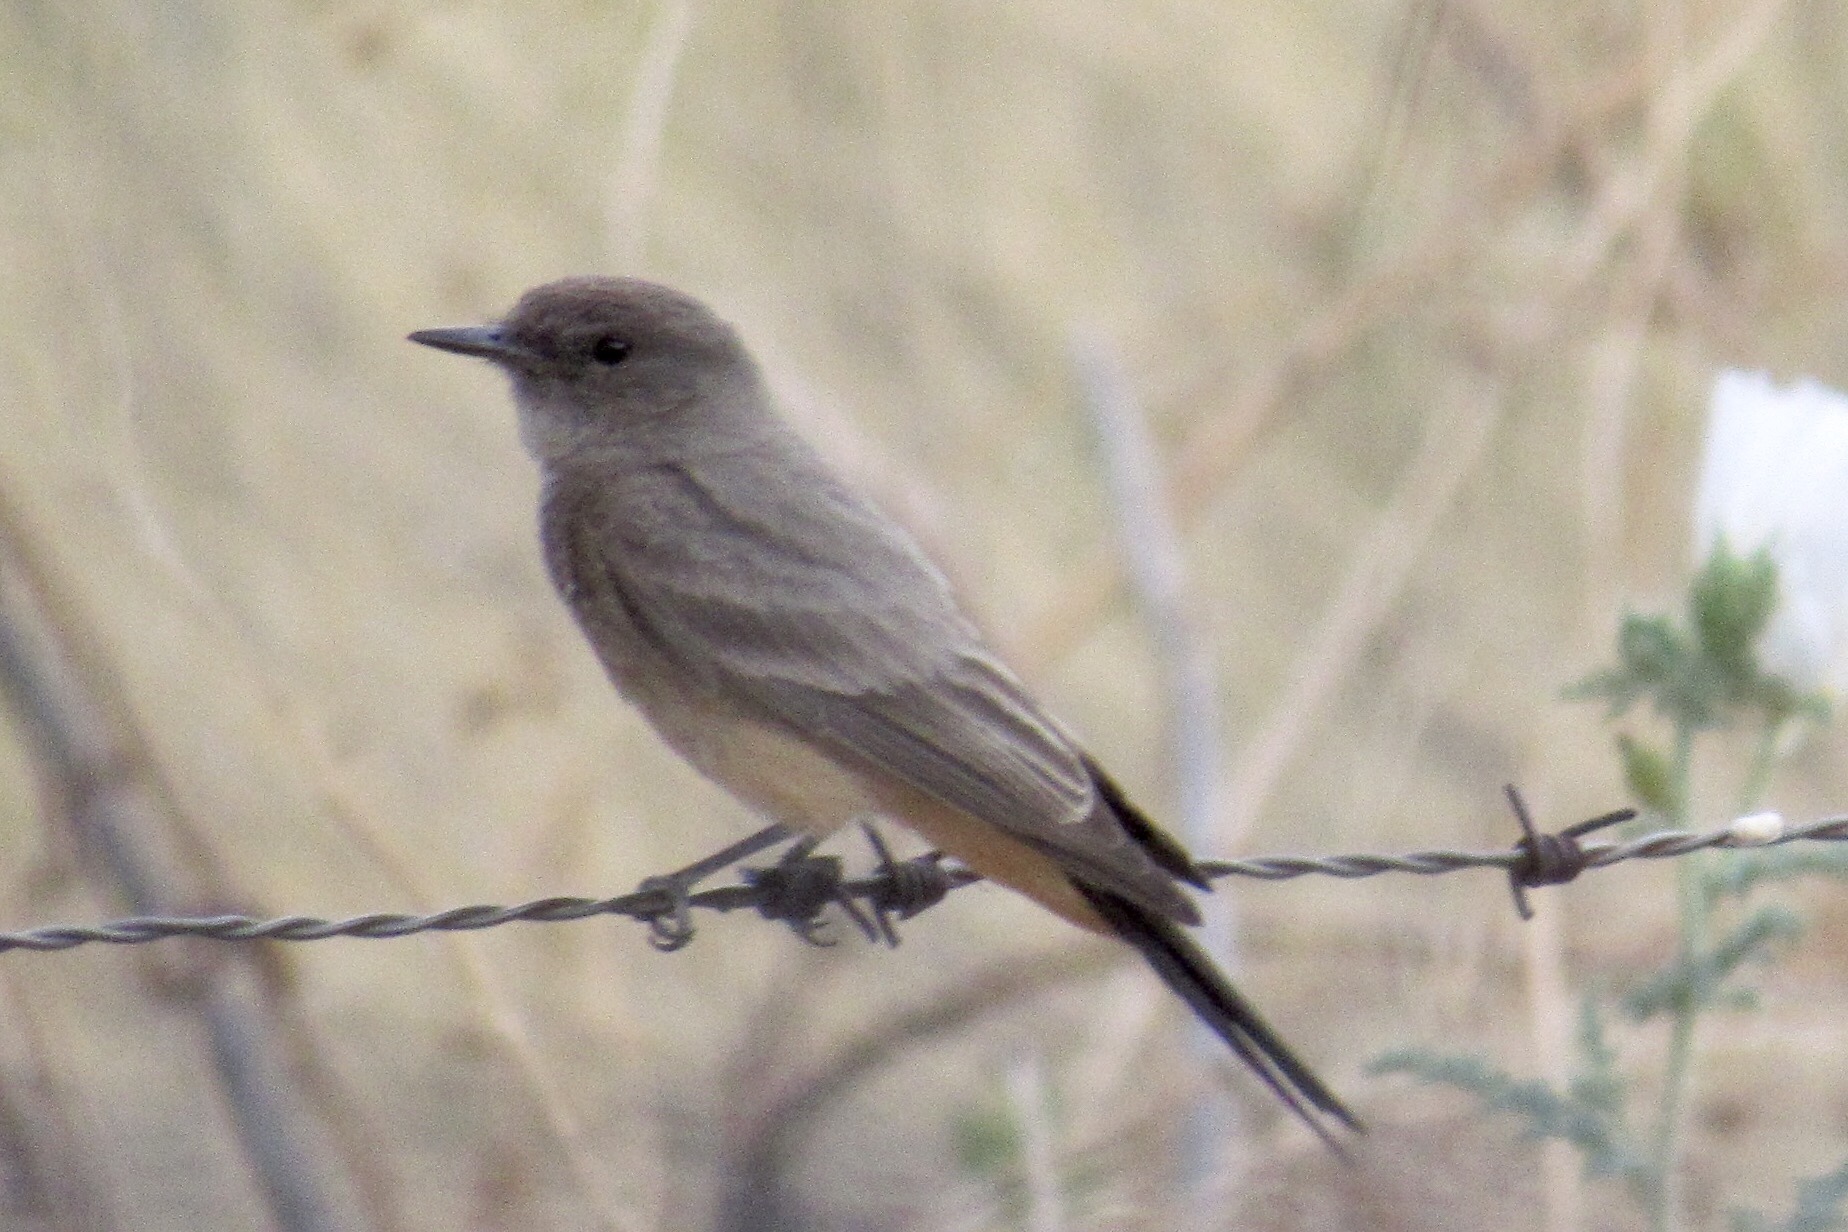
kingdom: Animalia
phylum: Chordata
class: Aves
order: Passeriformes
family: Tyrannidae
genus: Sayornis
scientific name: Sayornis saya
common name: Say's phoebe
